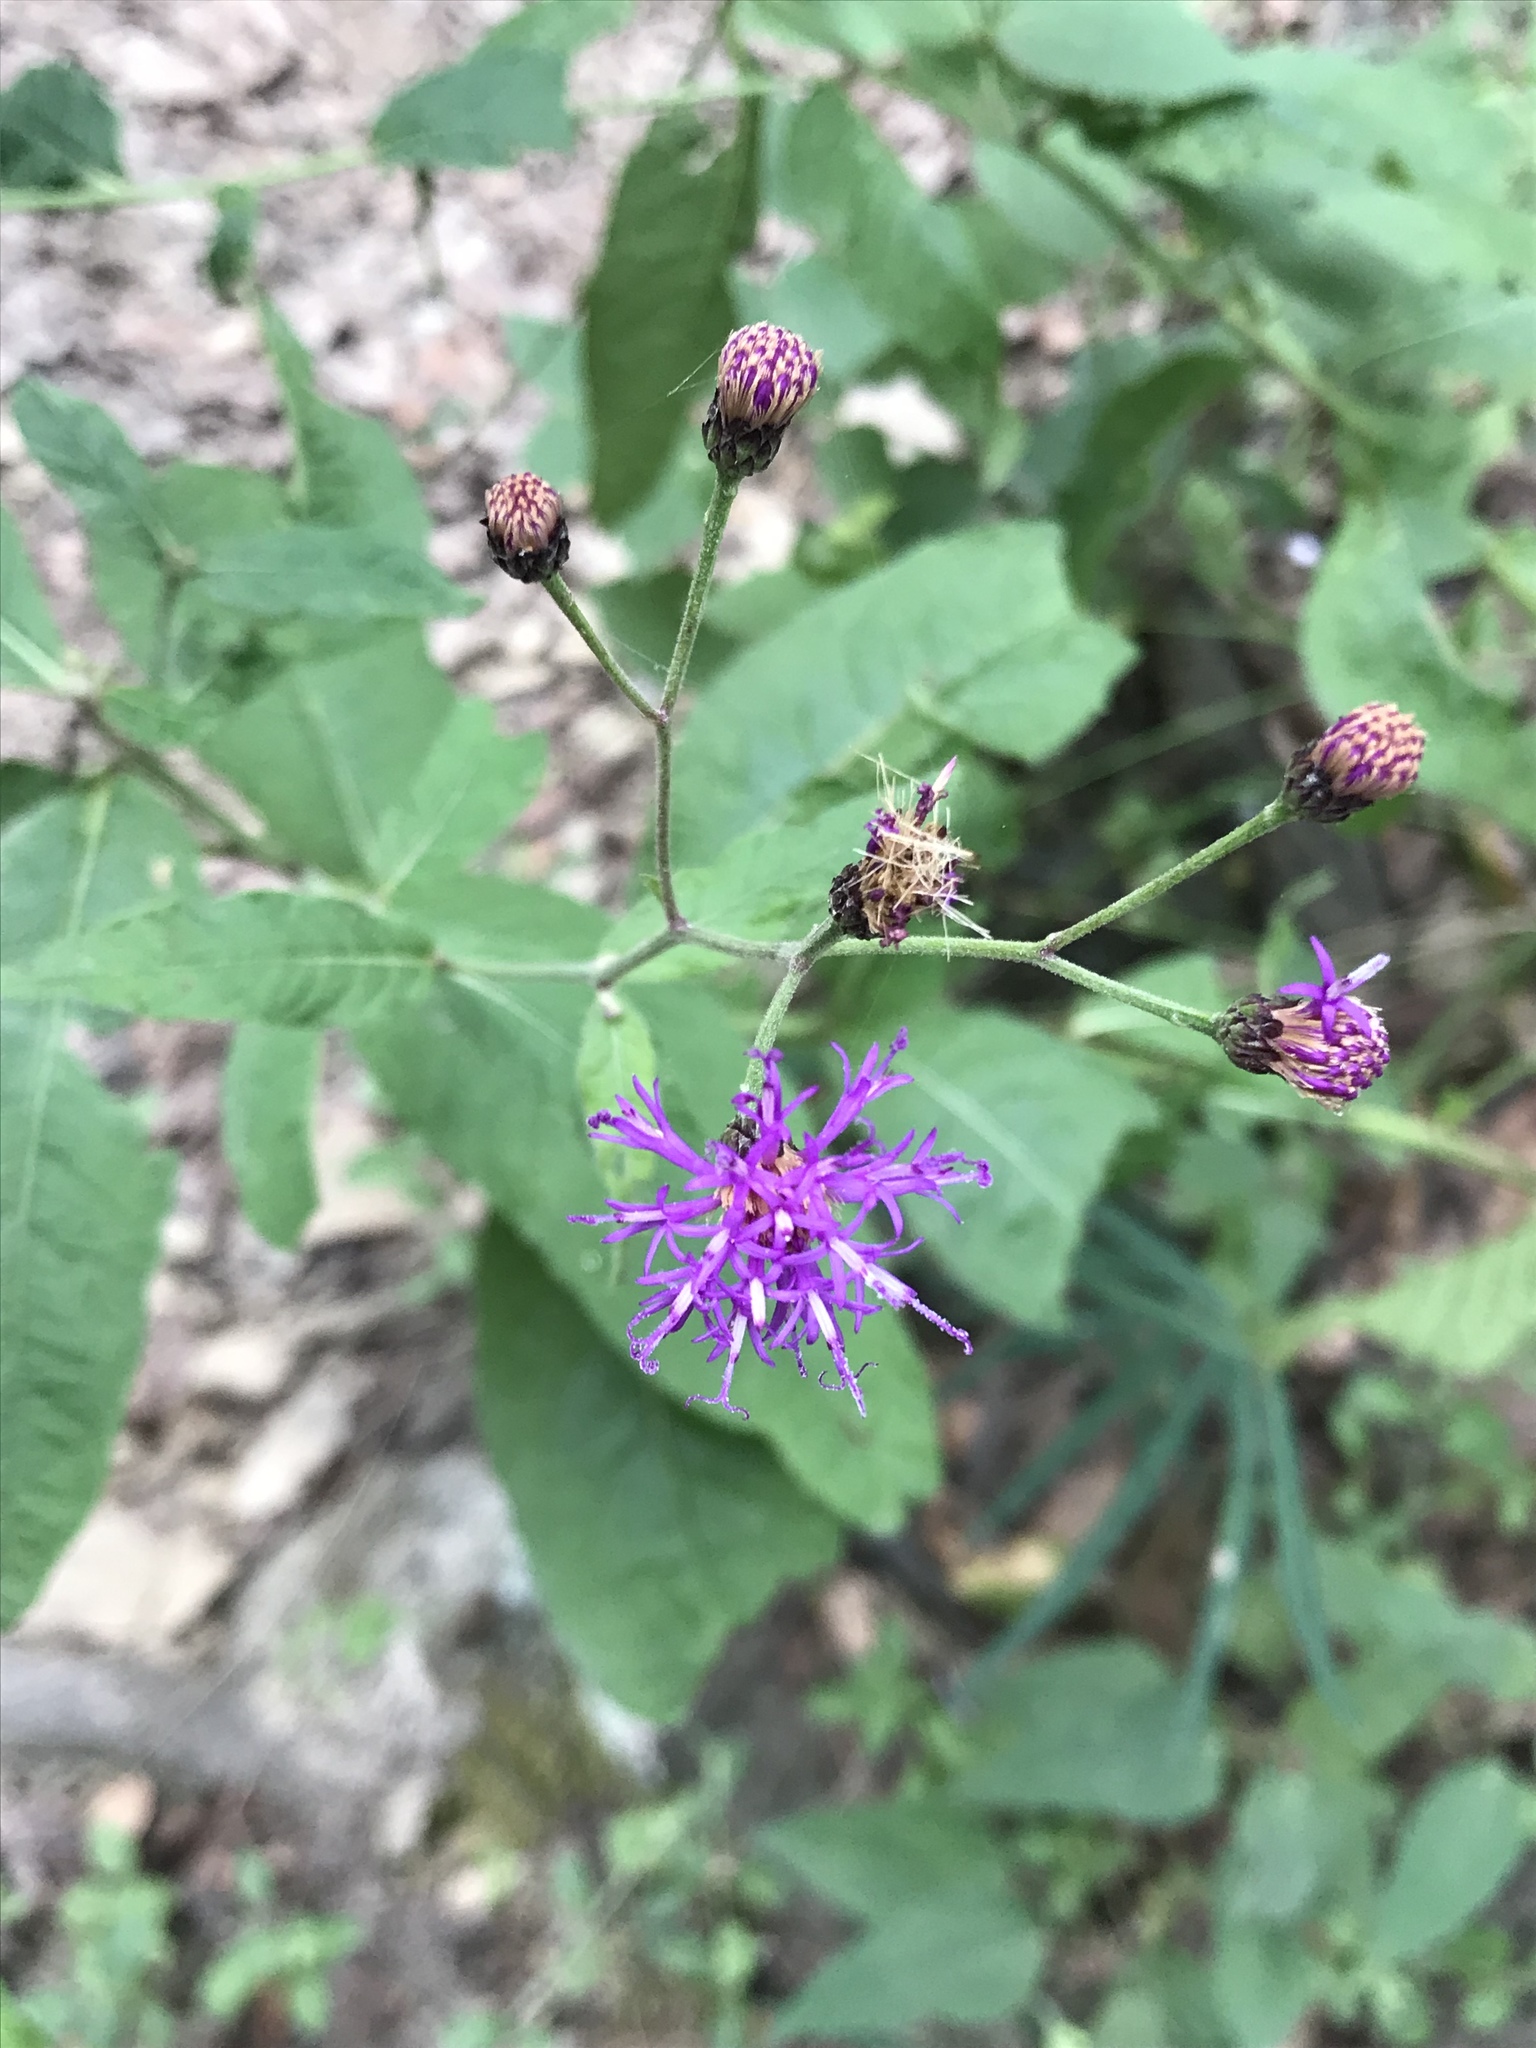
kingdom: Plantae
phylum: Tracheophyta
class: Magnoliopsida
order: Asterales
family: Asteraceae
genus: Vernonia
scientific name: Vernonia greggii
